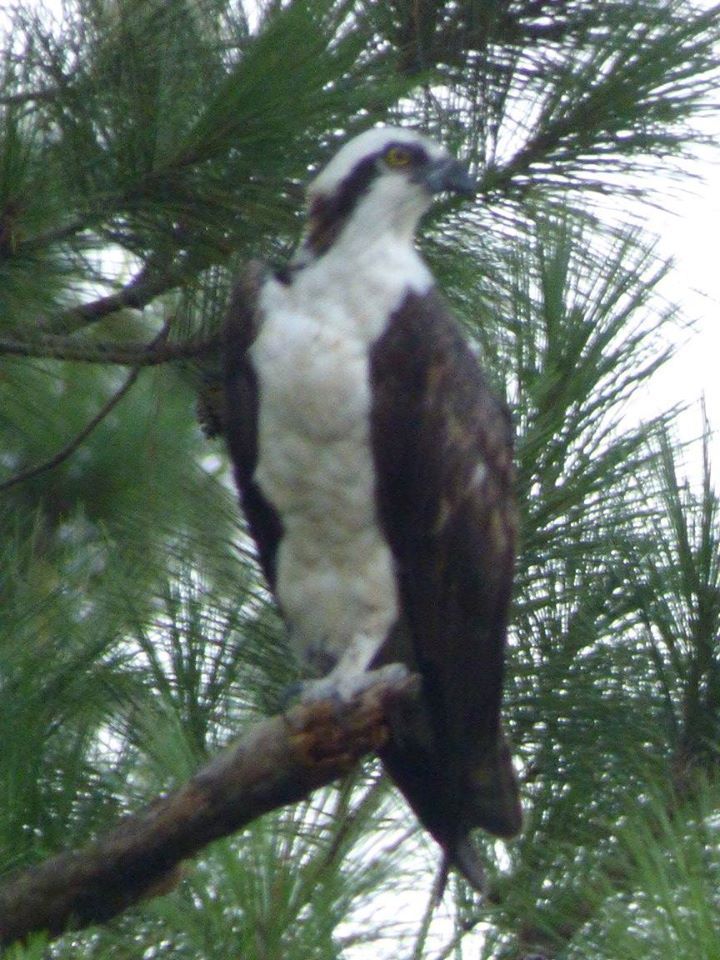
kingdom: Animalia
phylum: Chordata
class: Aves
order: Accipitriformes
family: Pandionidae
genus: Pandion
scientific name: Pandion haliaetus
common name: Osprey
